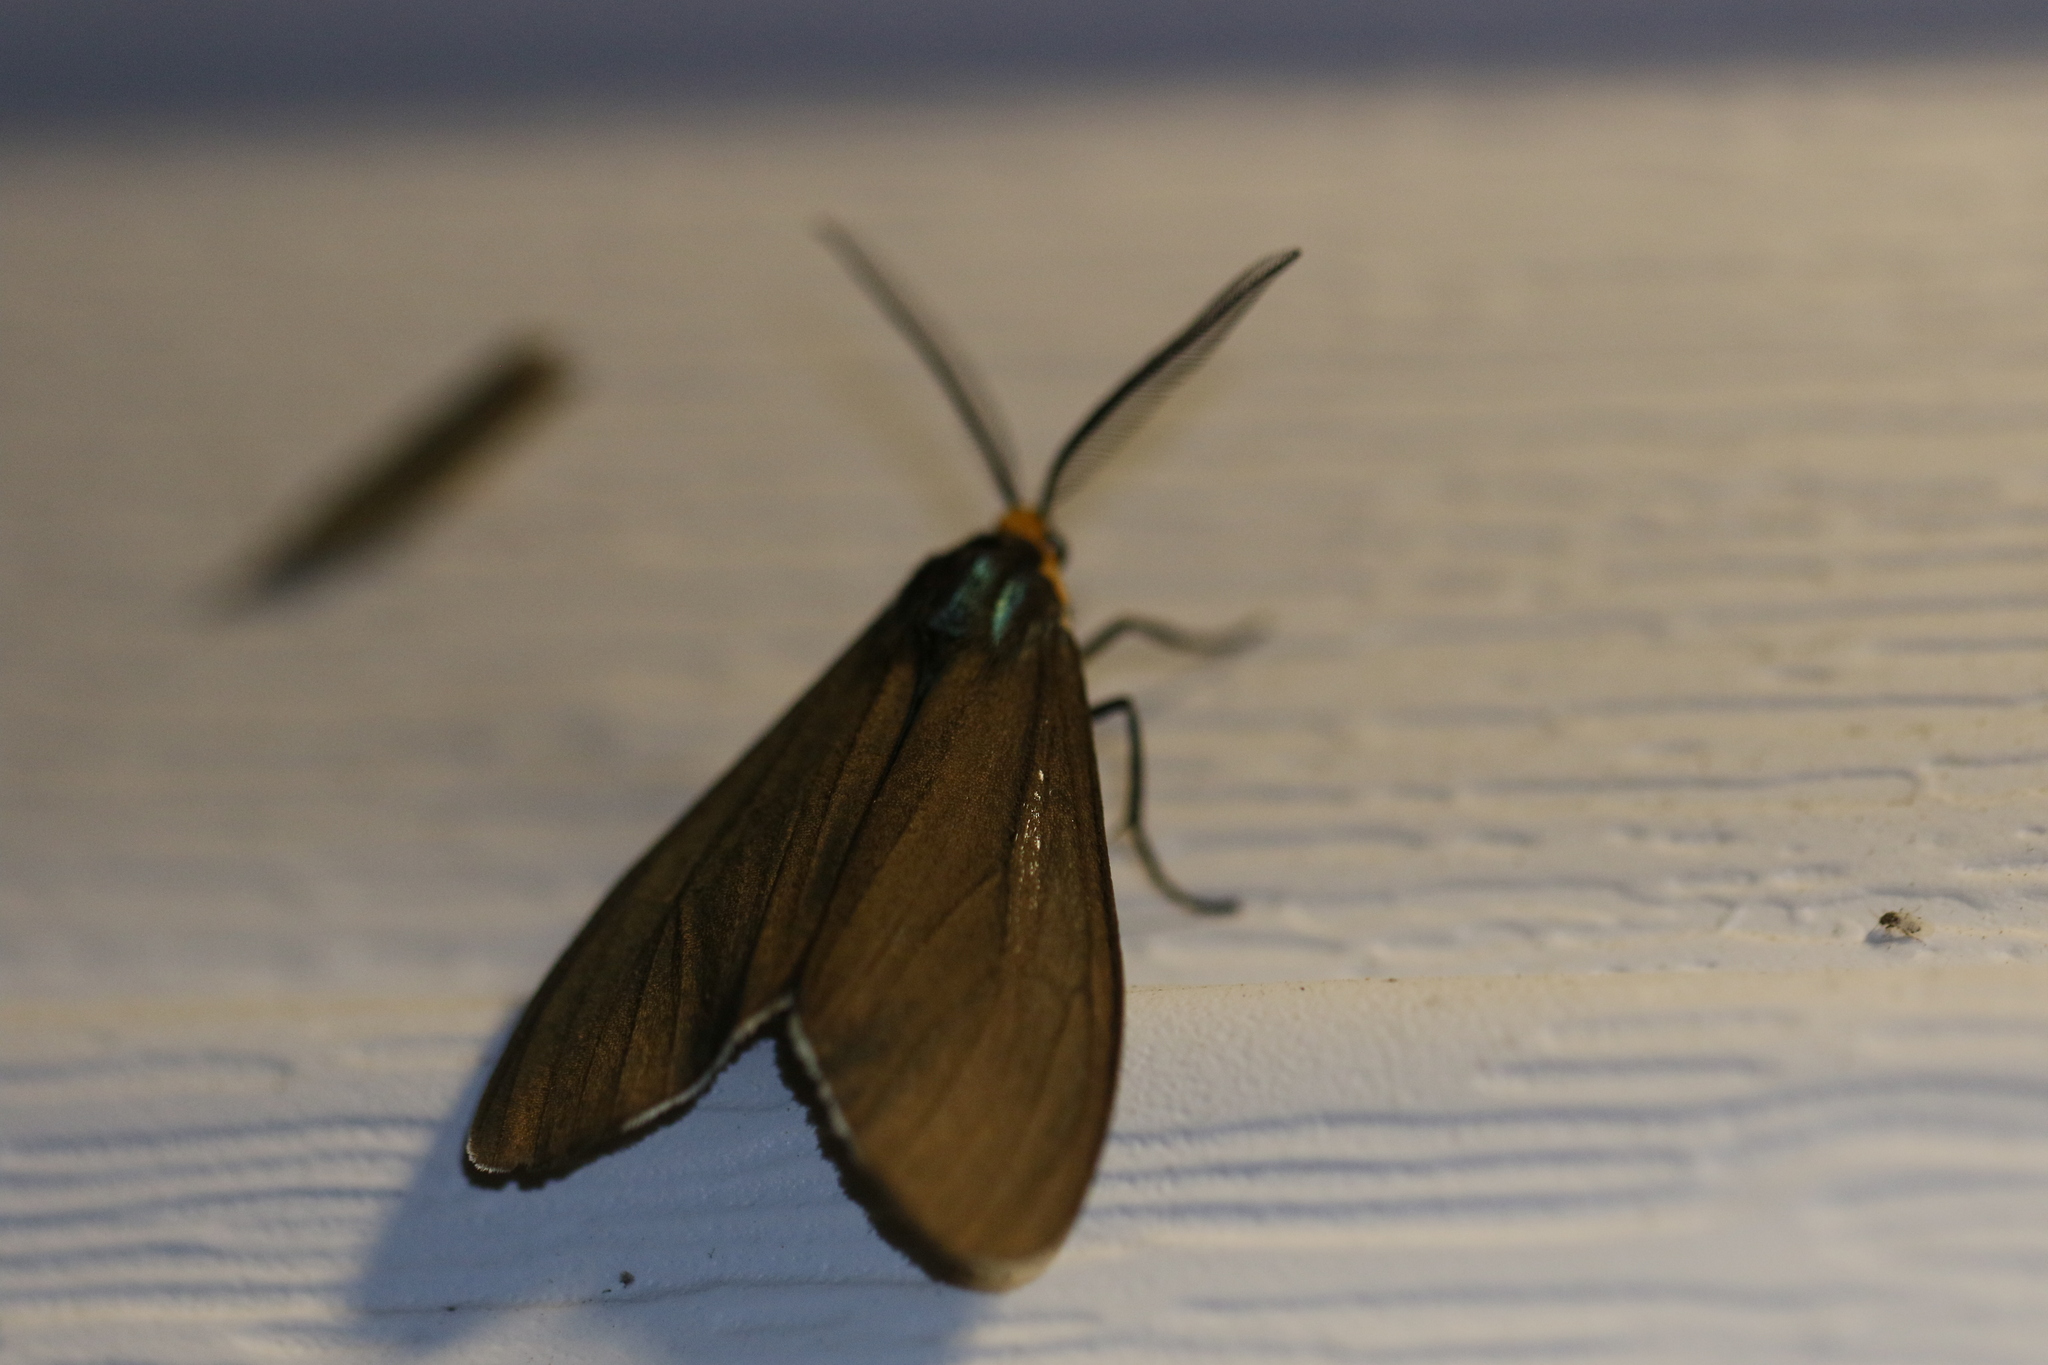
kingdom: Animalia
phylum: Arthropoda
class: Insecta
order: Lepidoptera
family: Erebidae
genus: Ctenucha
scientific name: Ctenucha virginica
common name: Virginia ctenucha moth
